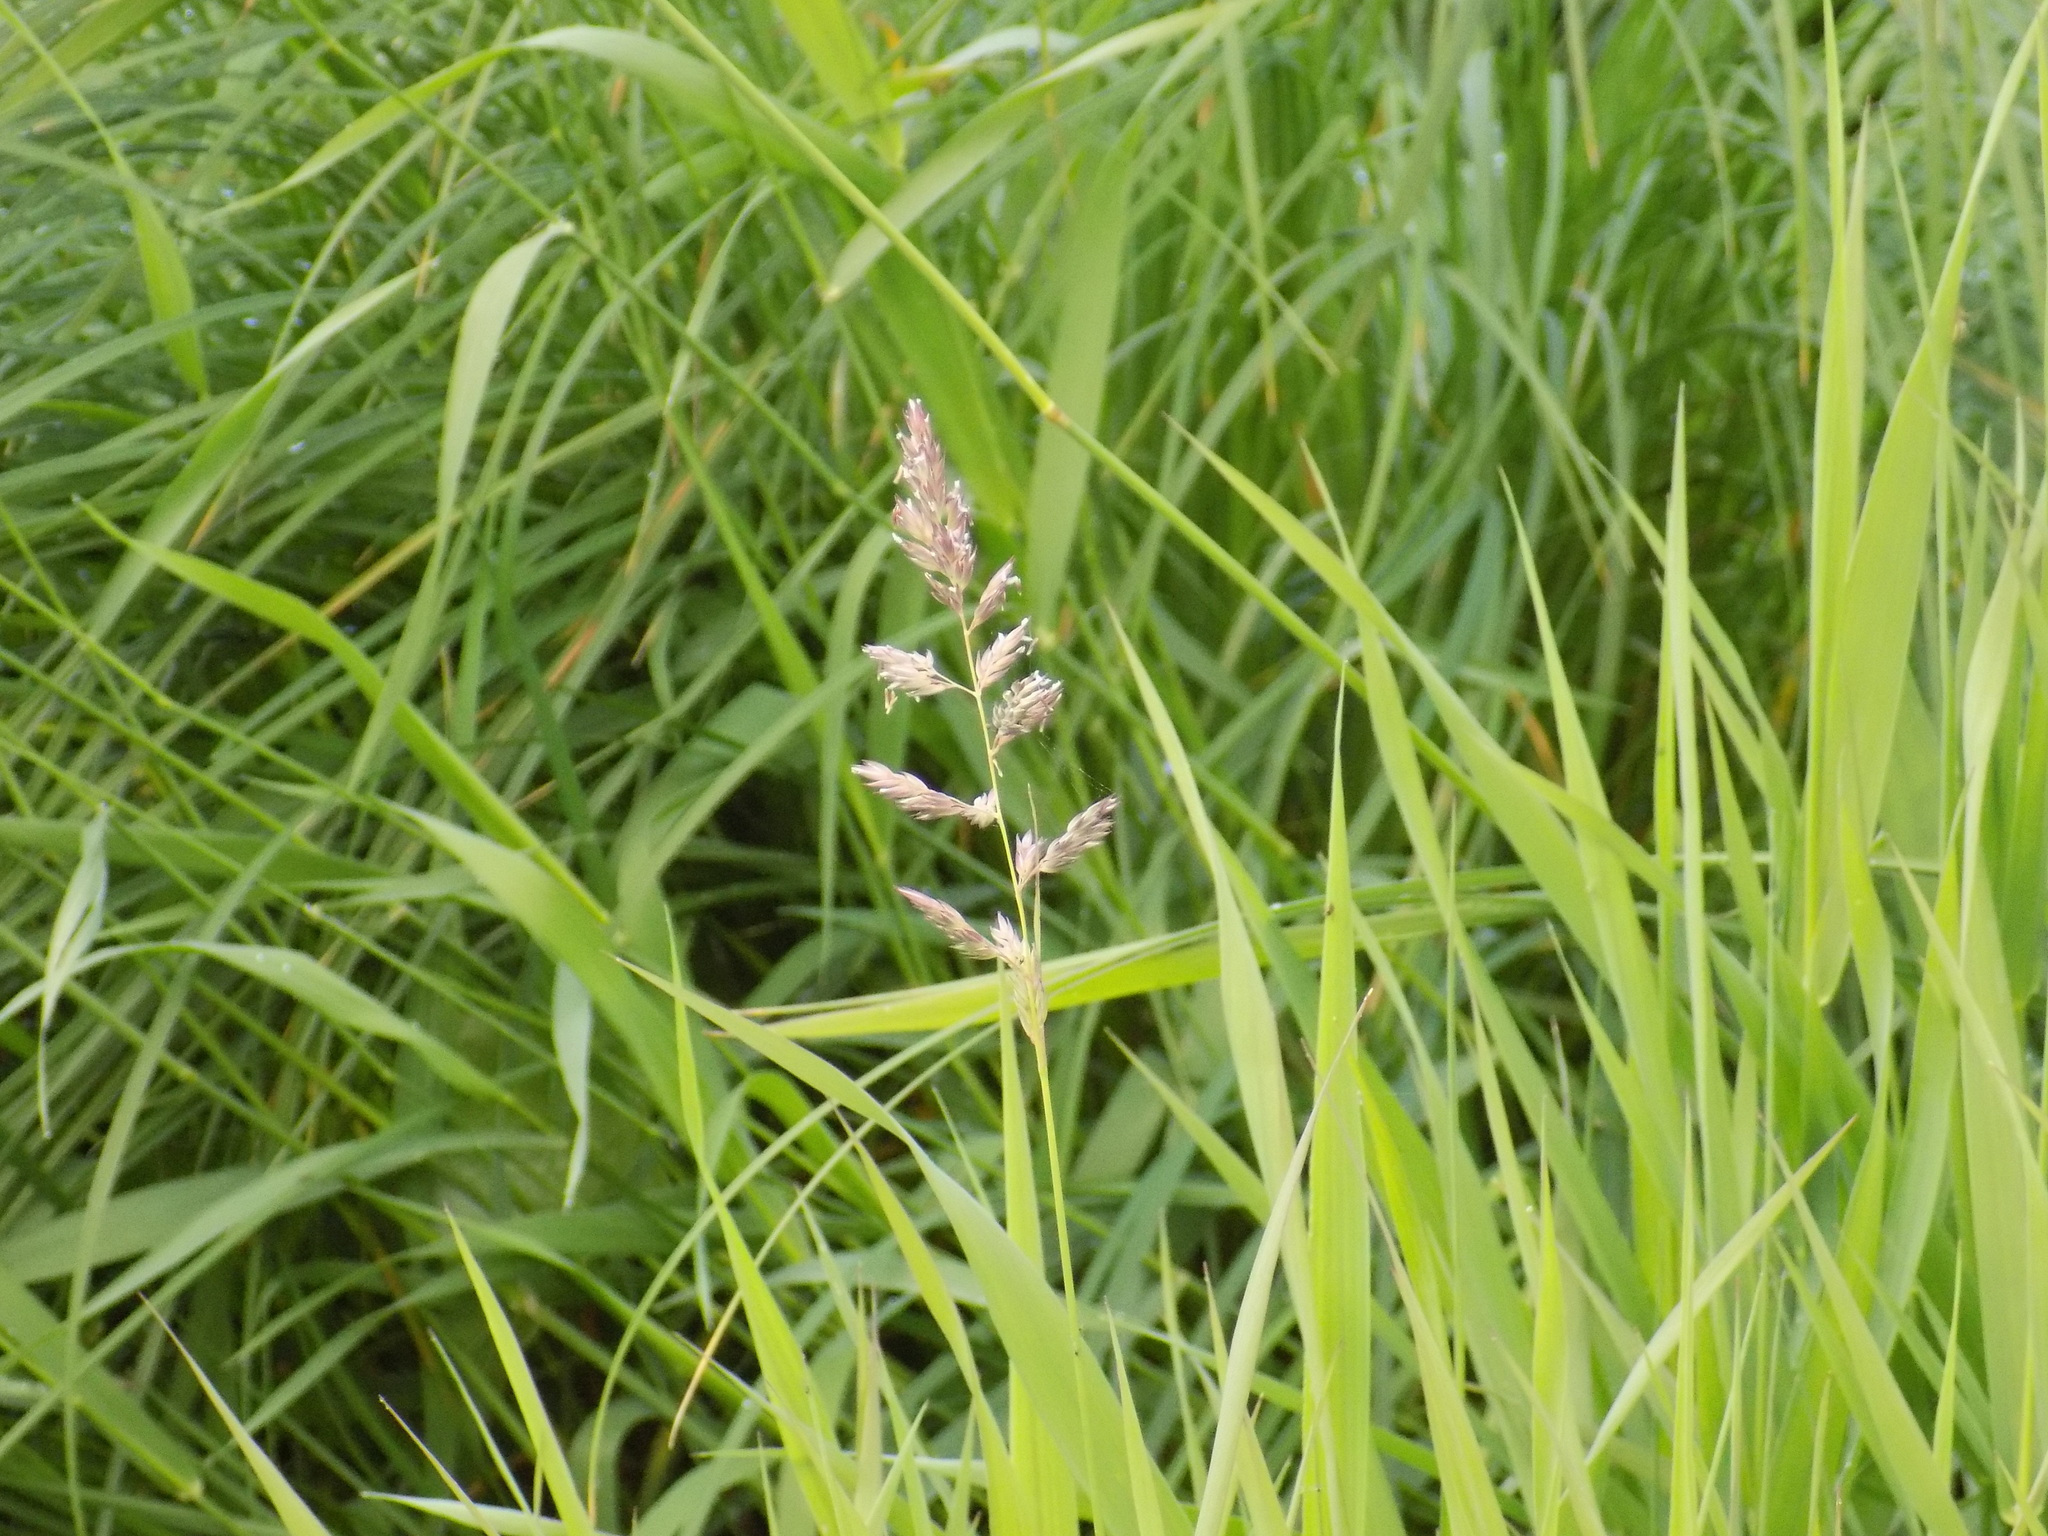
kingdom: Plantae
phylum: Tracheophyta
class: Liliopsida
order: Poales
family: Poaceae
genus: Phalaris
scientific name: Phalaris arundinacea
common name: Reed canary-grass
